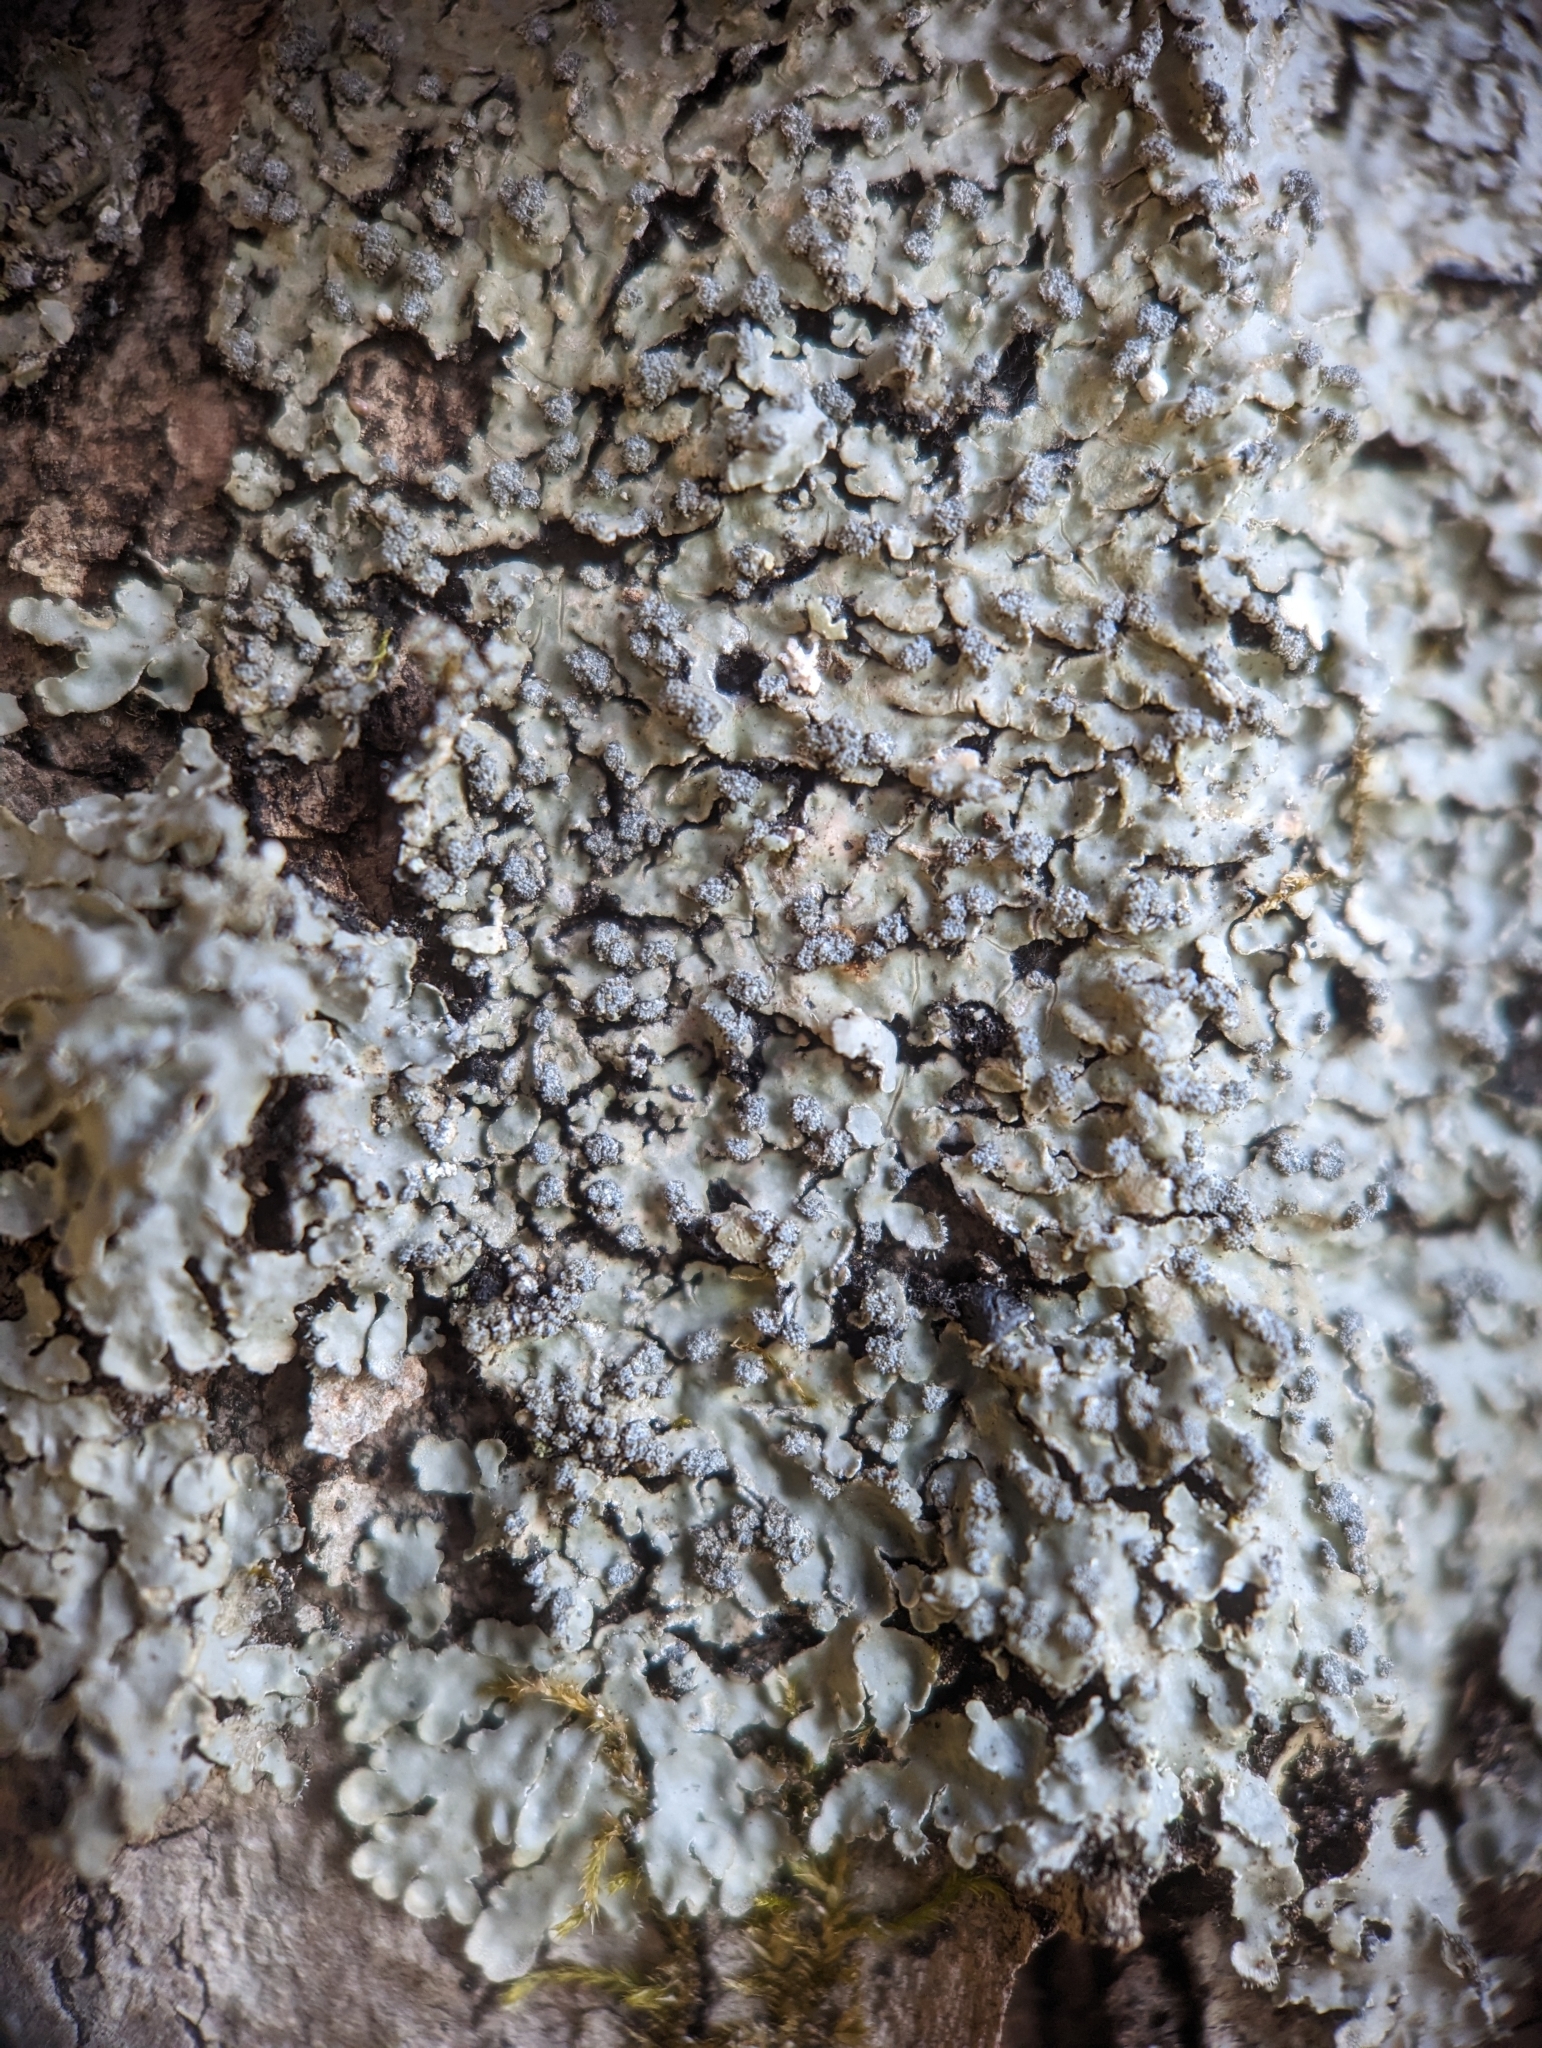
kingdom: Fungi
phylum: Ascomycota
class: Lecanoromycetes
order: Caliciales
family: Caliciaceae
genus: Pyxine
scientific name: Pyxine sorediata
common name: Mustard lichen
